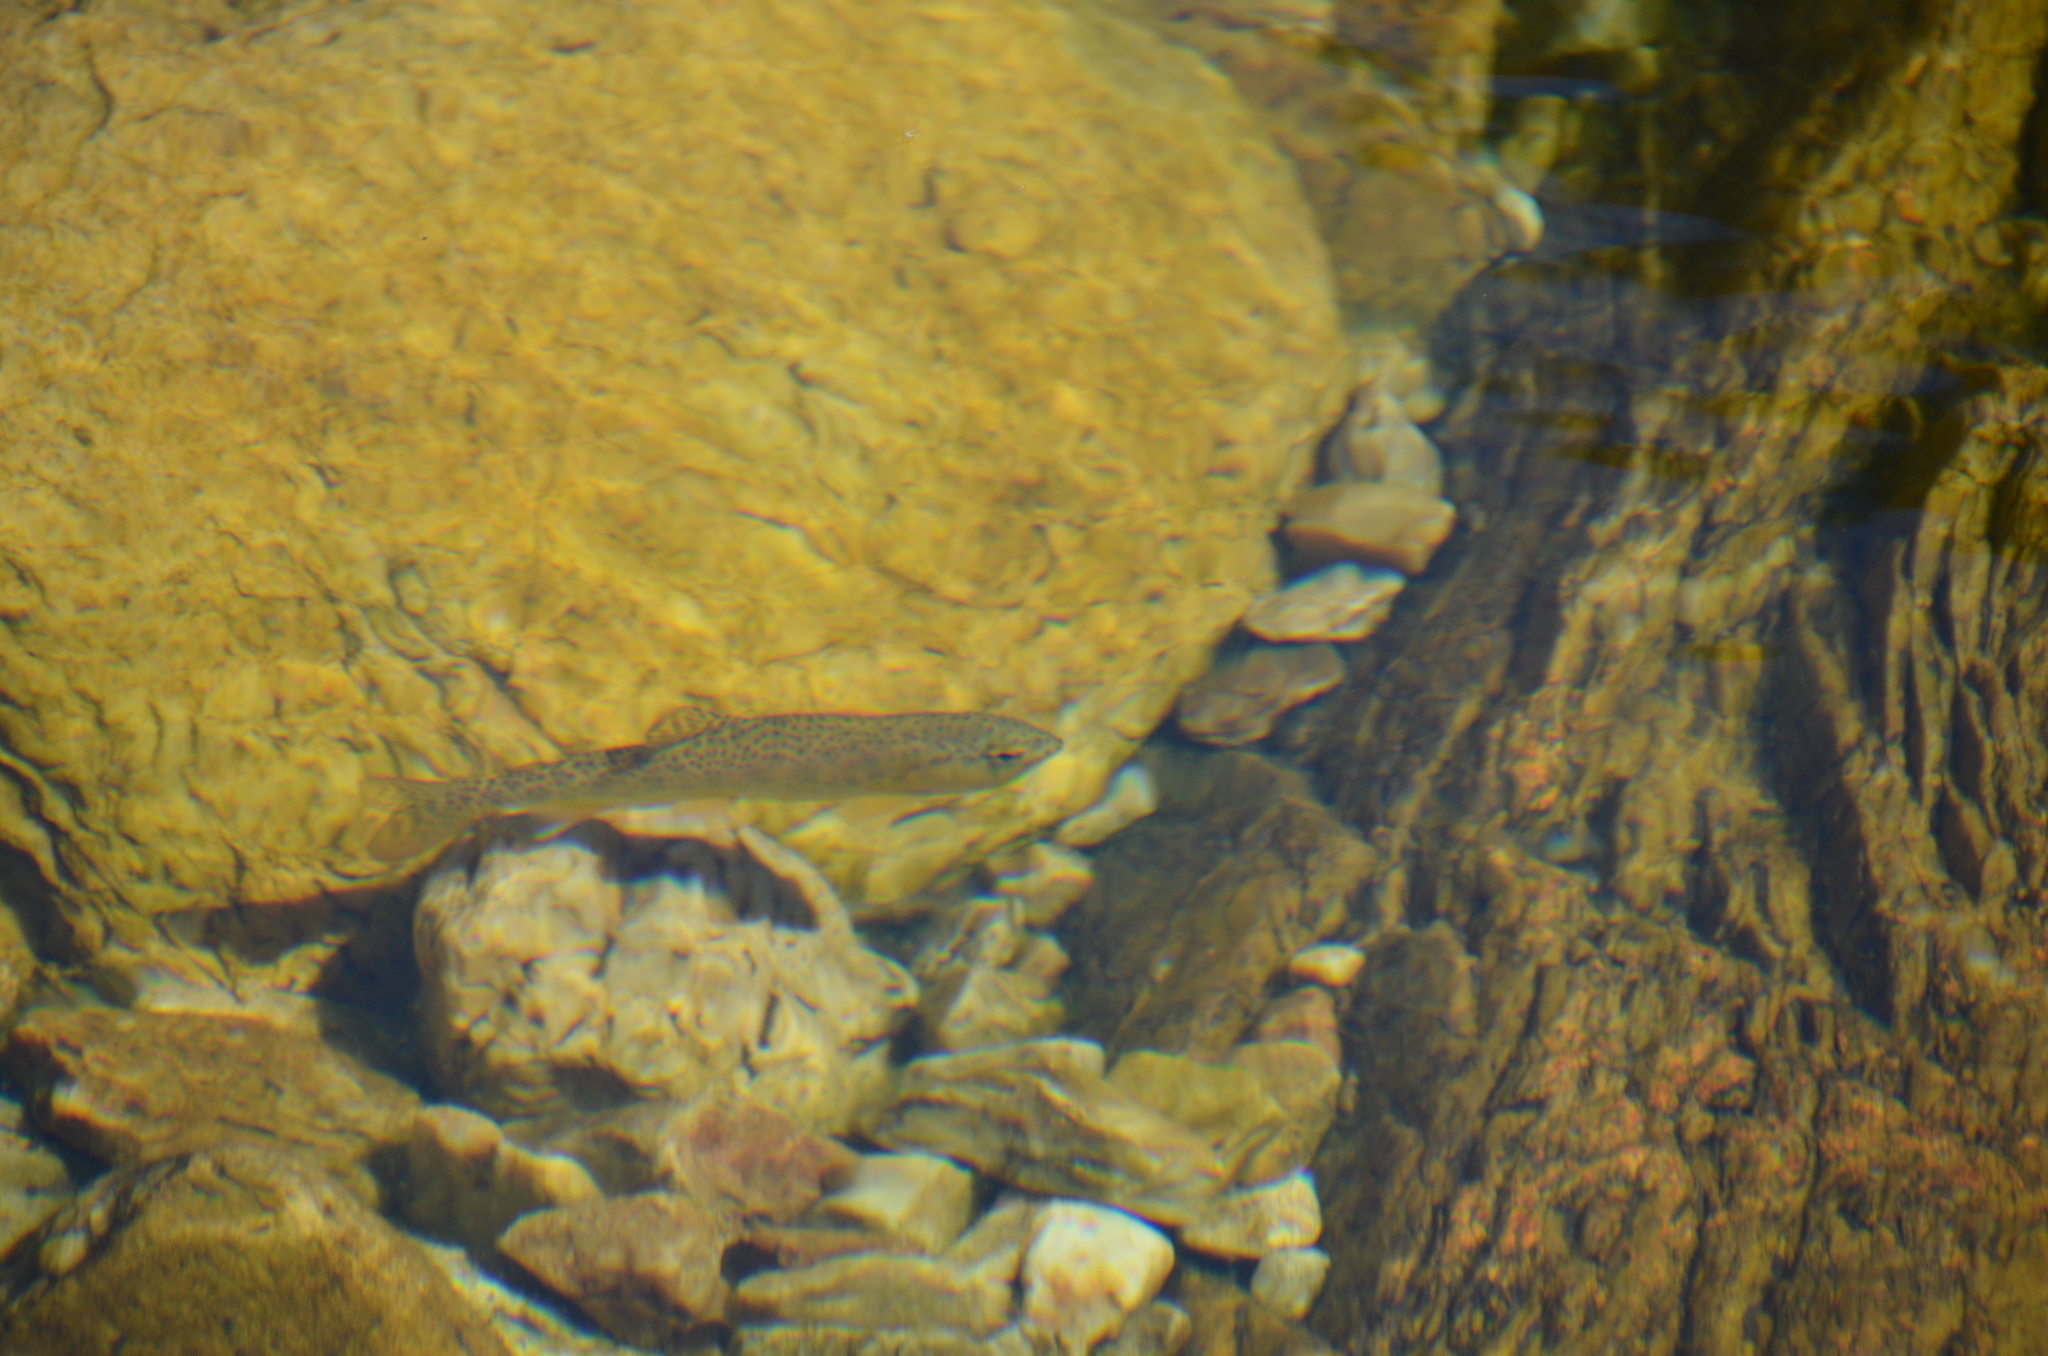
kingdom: Animalia
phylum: Chordata
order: Salmoniformes
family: Salmonidae
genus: Oncorhynchus
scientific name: Oncorhynchus mykiss
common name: Rainbow trout
